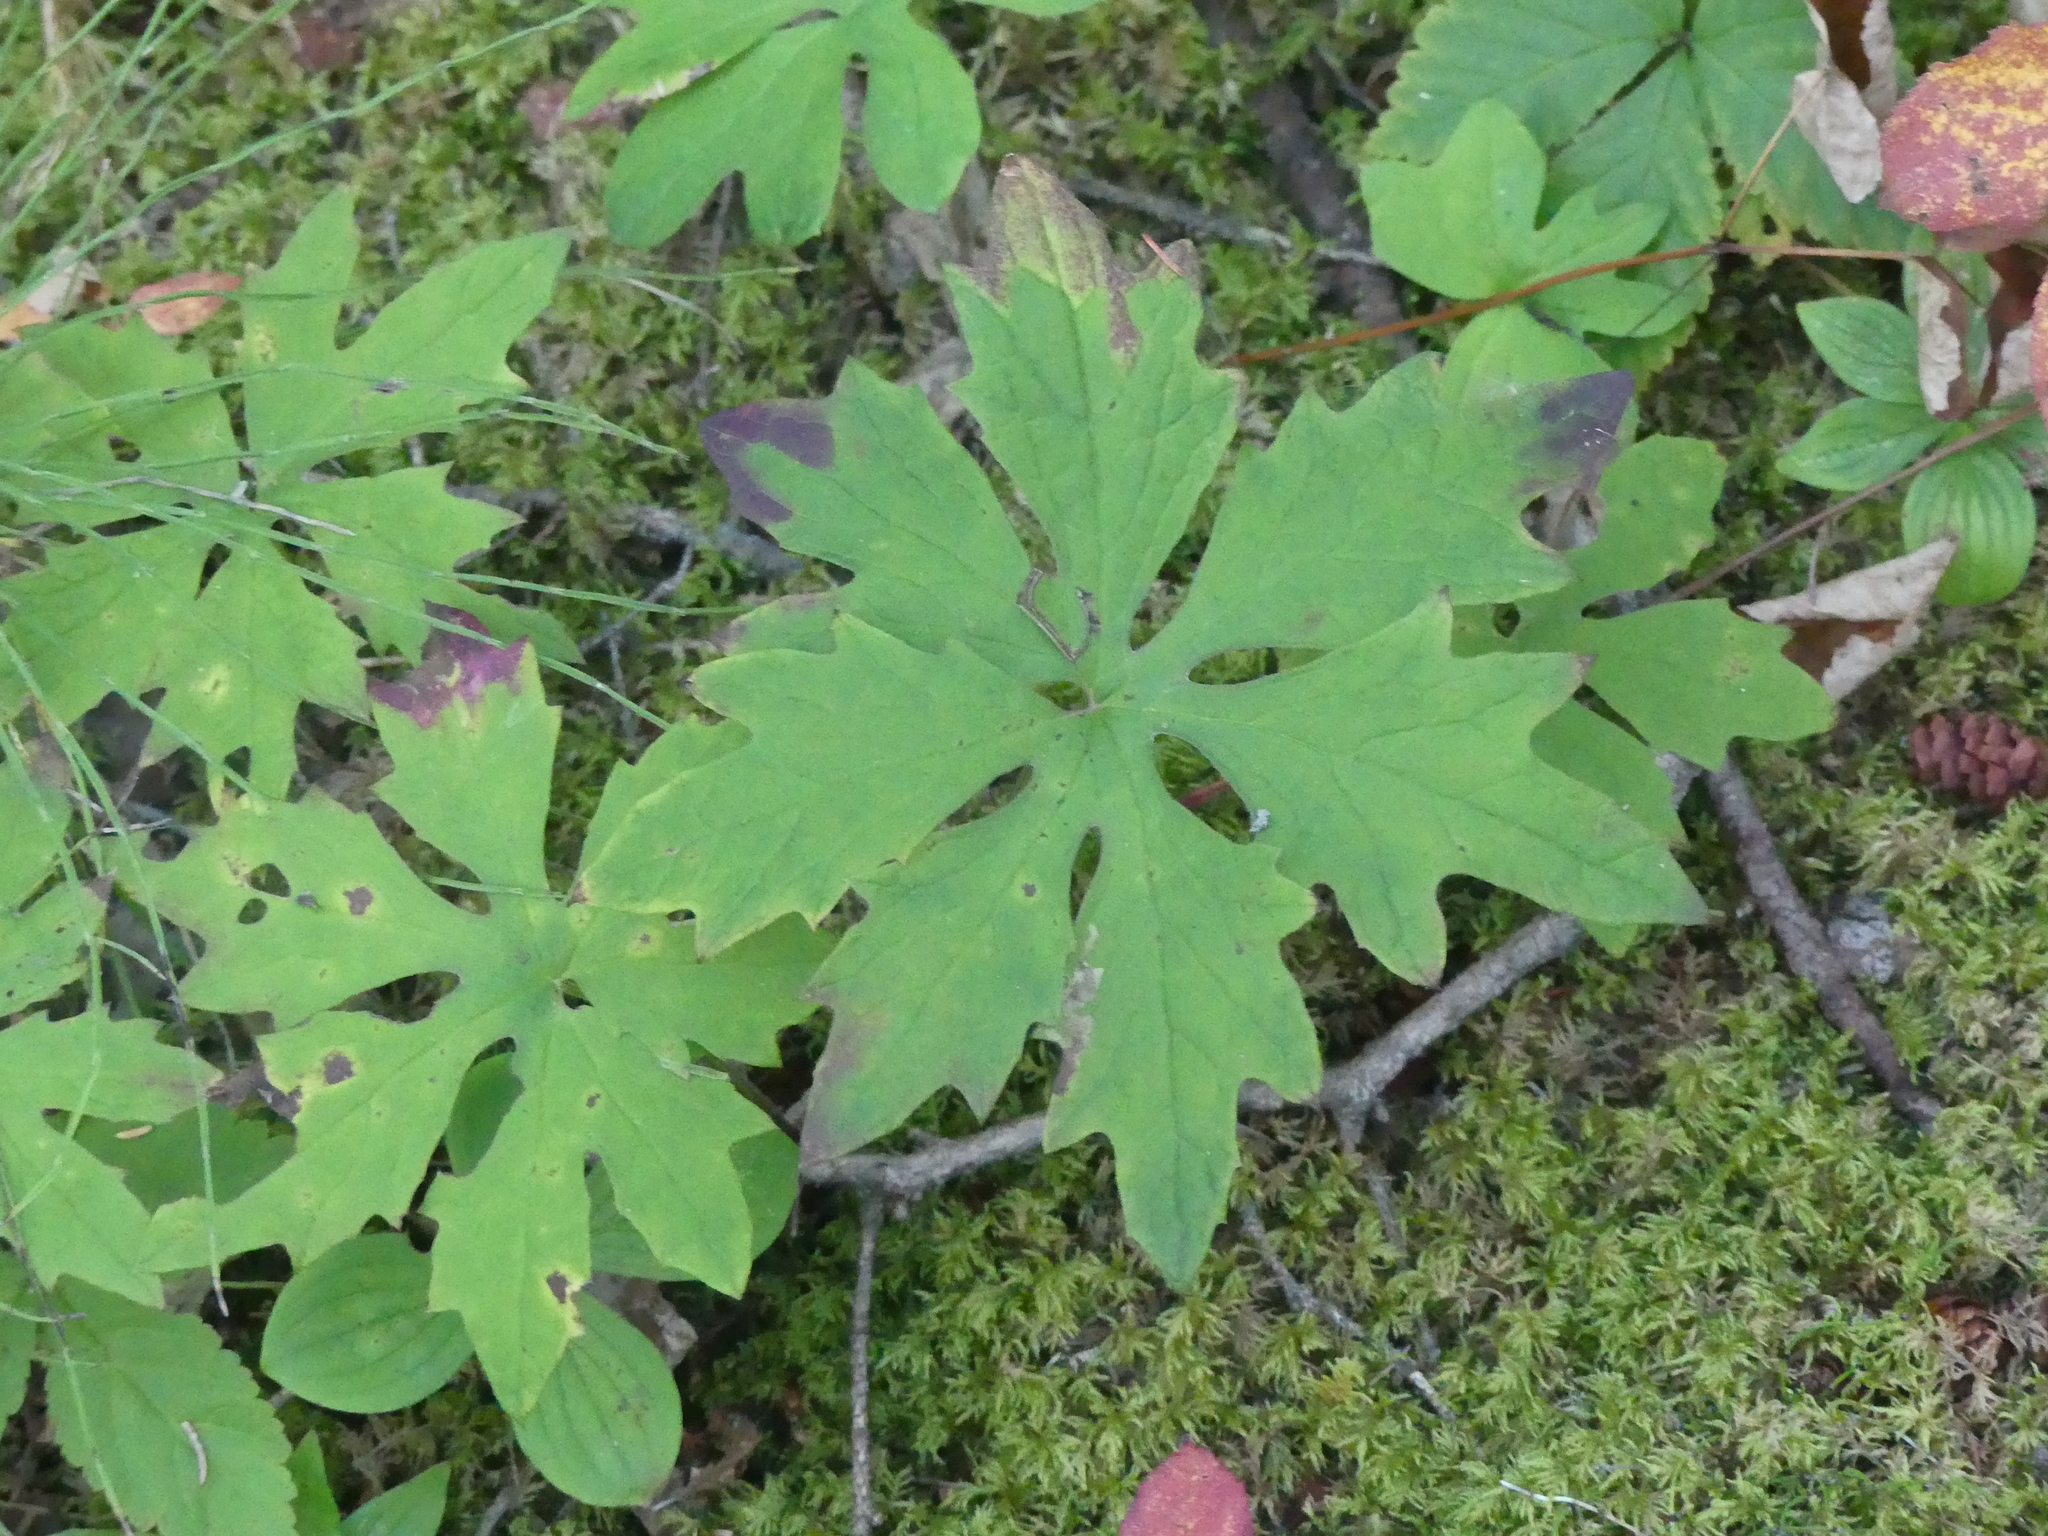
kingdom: Plantae
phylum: Tracheophyta
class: Magnoliopsida
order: Asterales
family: Asteraceae
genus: Petasites
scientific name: Petasites frigidus
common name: Arctic butterbur
